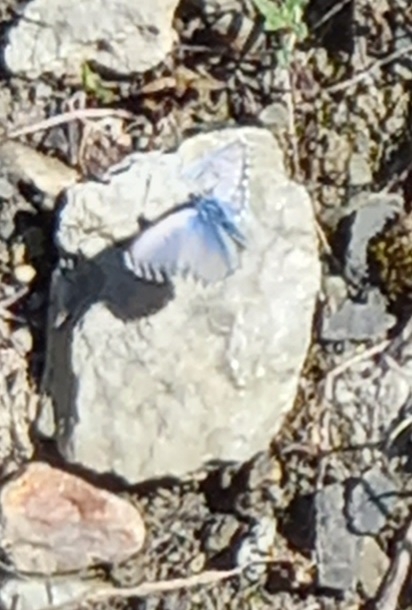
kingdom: Animalia
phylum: Arthropoda
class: Insecta
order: Lepidoptera
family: Lycaenidae
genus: Pseudophilotes
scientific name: Pseudophilotes baton
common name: Baton blue
